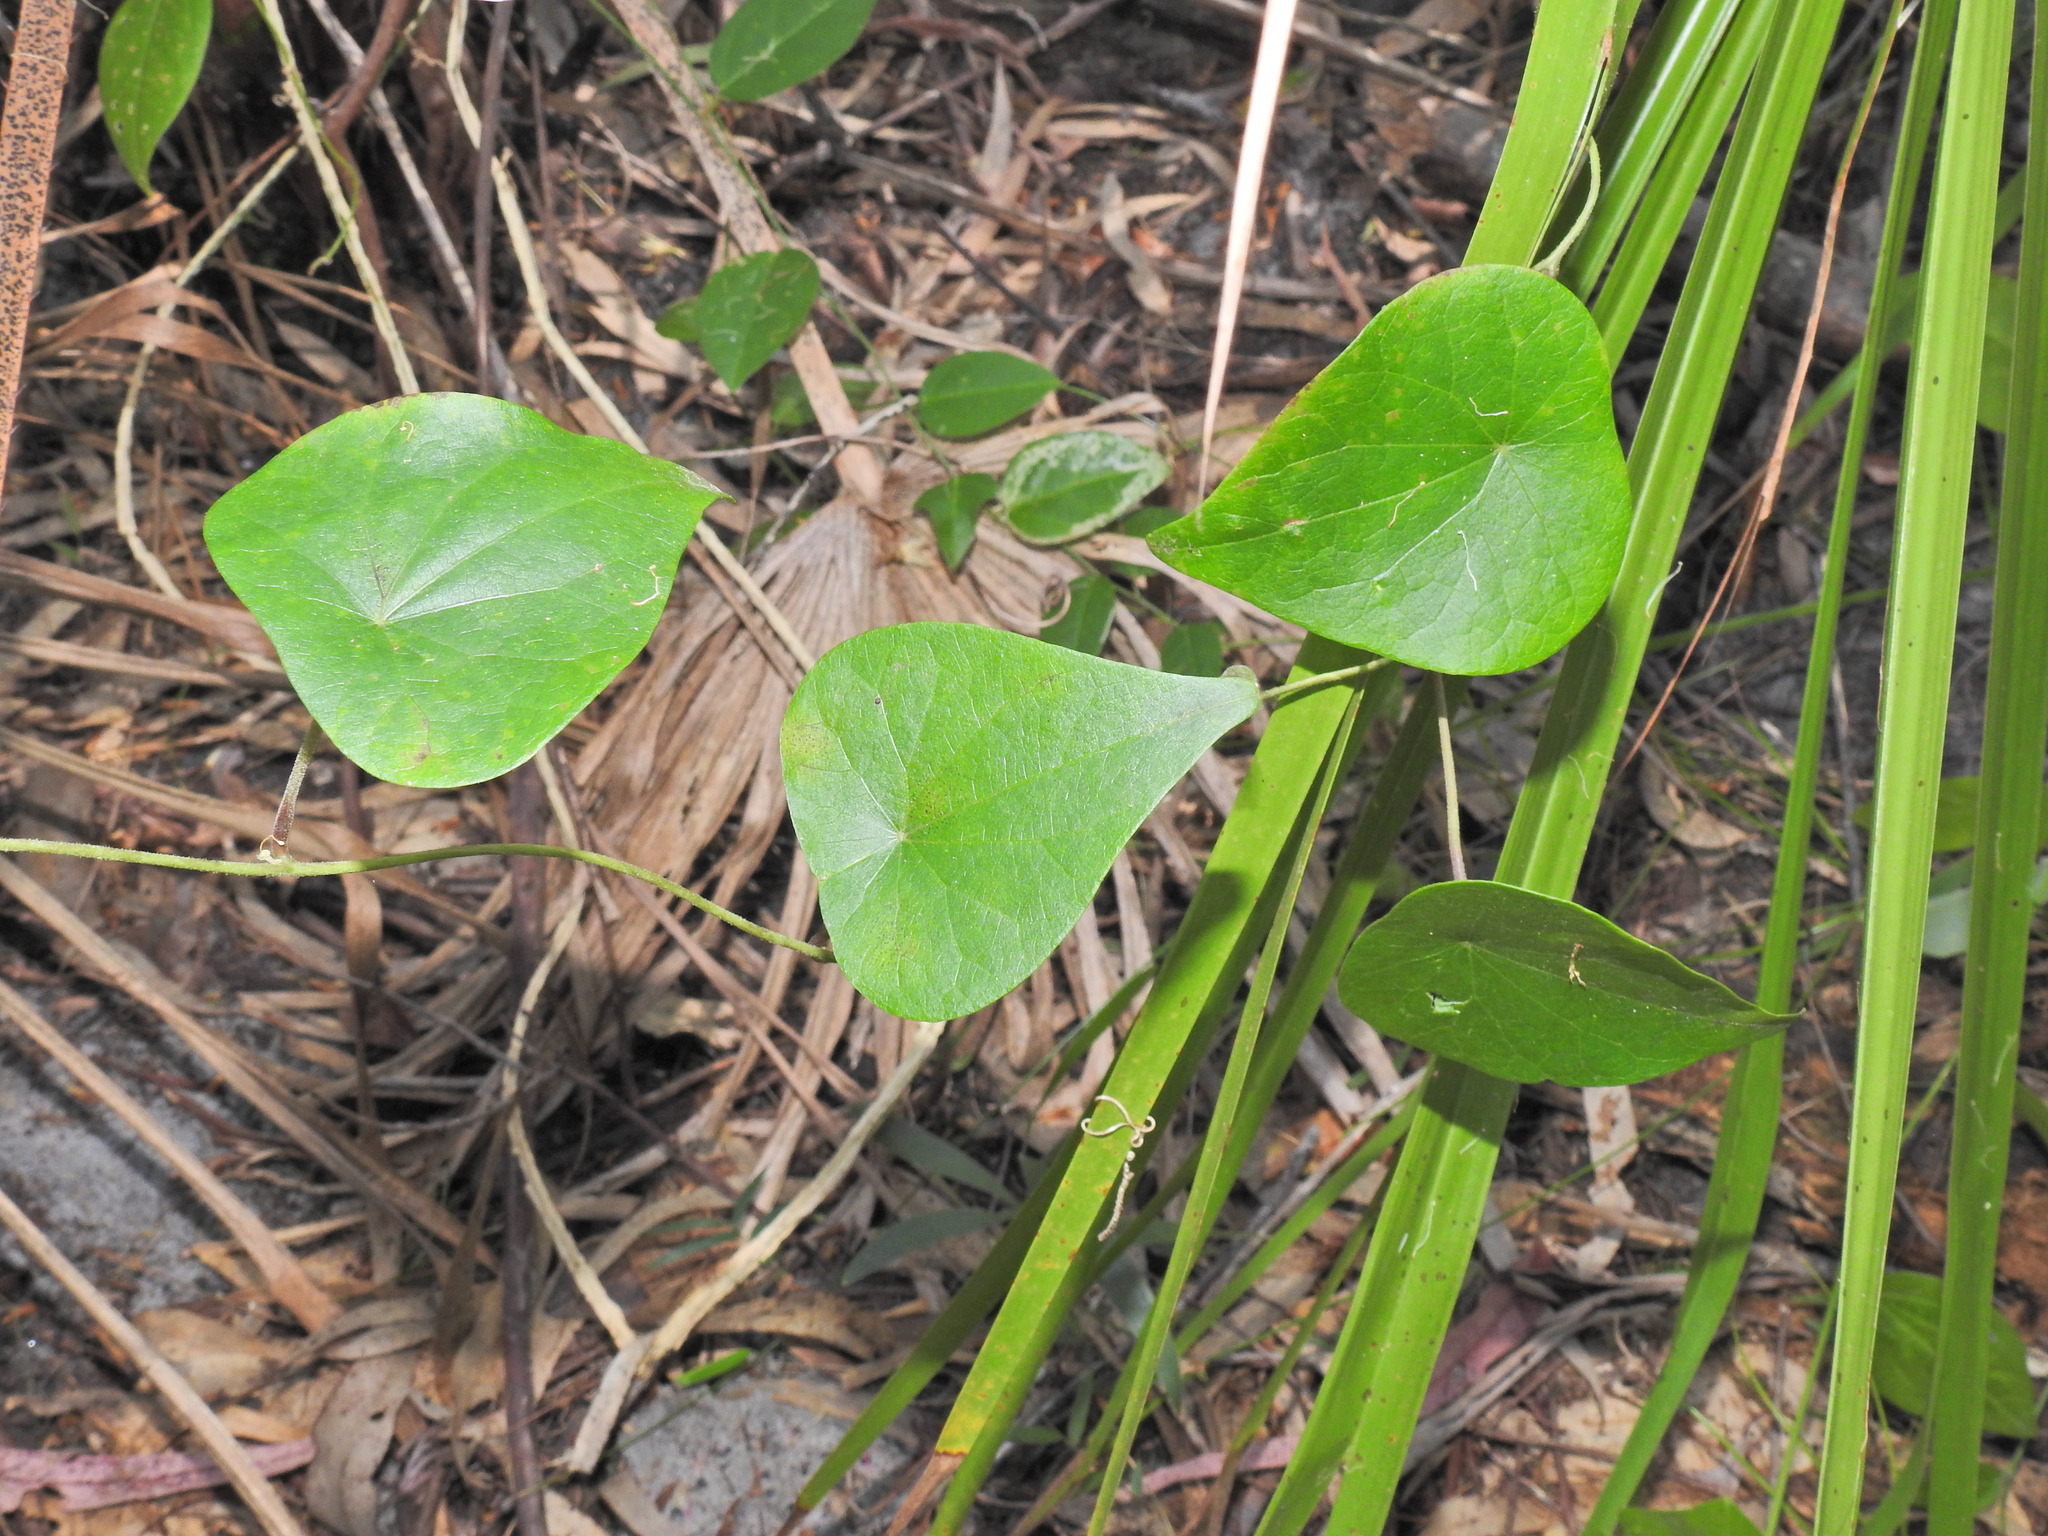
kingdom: Plantae
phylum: Tracheophyta
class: Magnoliopsida
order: Ranunculales
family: Menispermaceae
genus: Stephania
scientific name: Stephania japonica
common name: Snake vine
